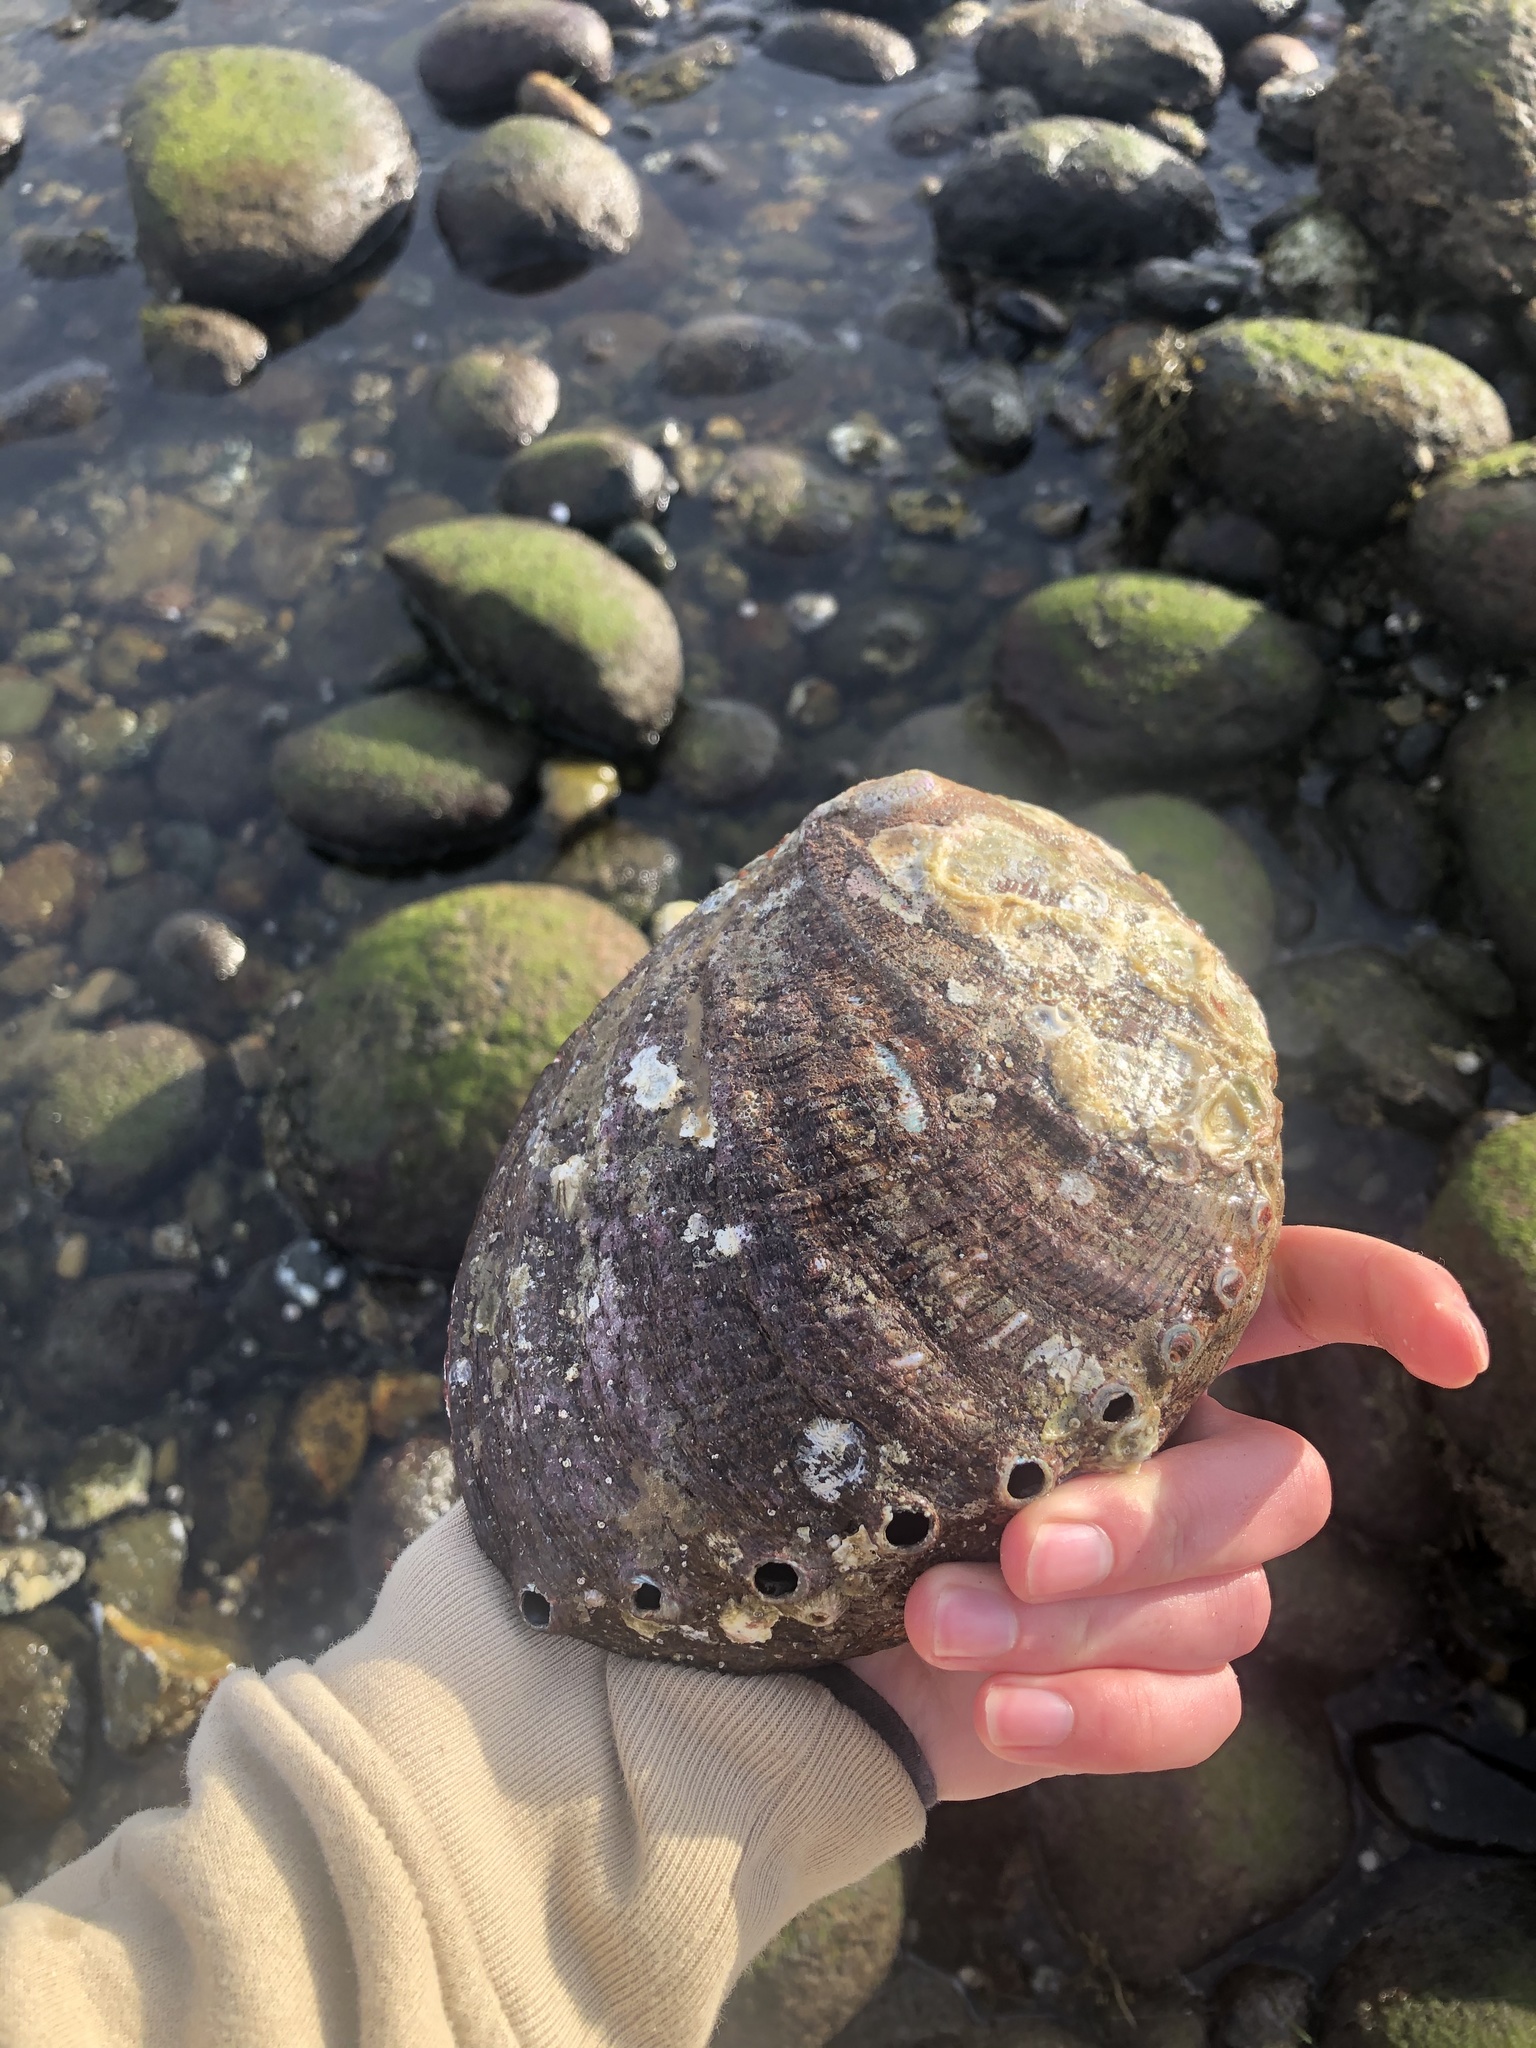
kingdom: Animalia
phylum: Mollusca
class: Gastropoda
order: Lepetellida
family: Haliotidae
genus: Haliotis
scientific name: Haliotis fulgens
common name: Green abalone
